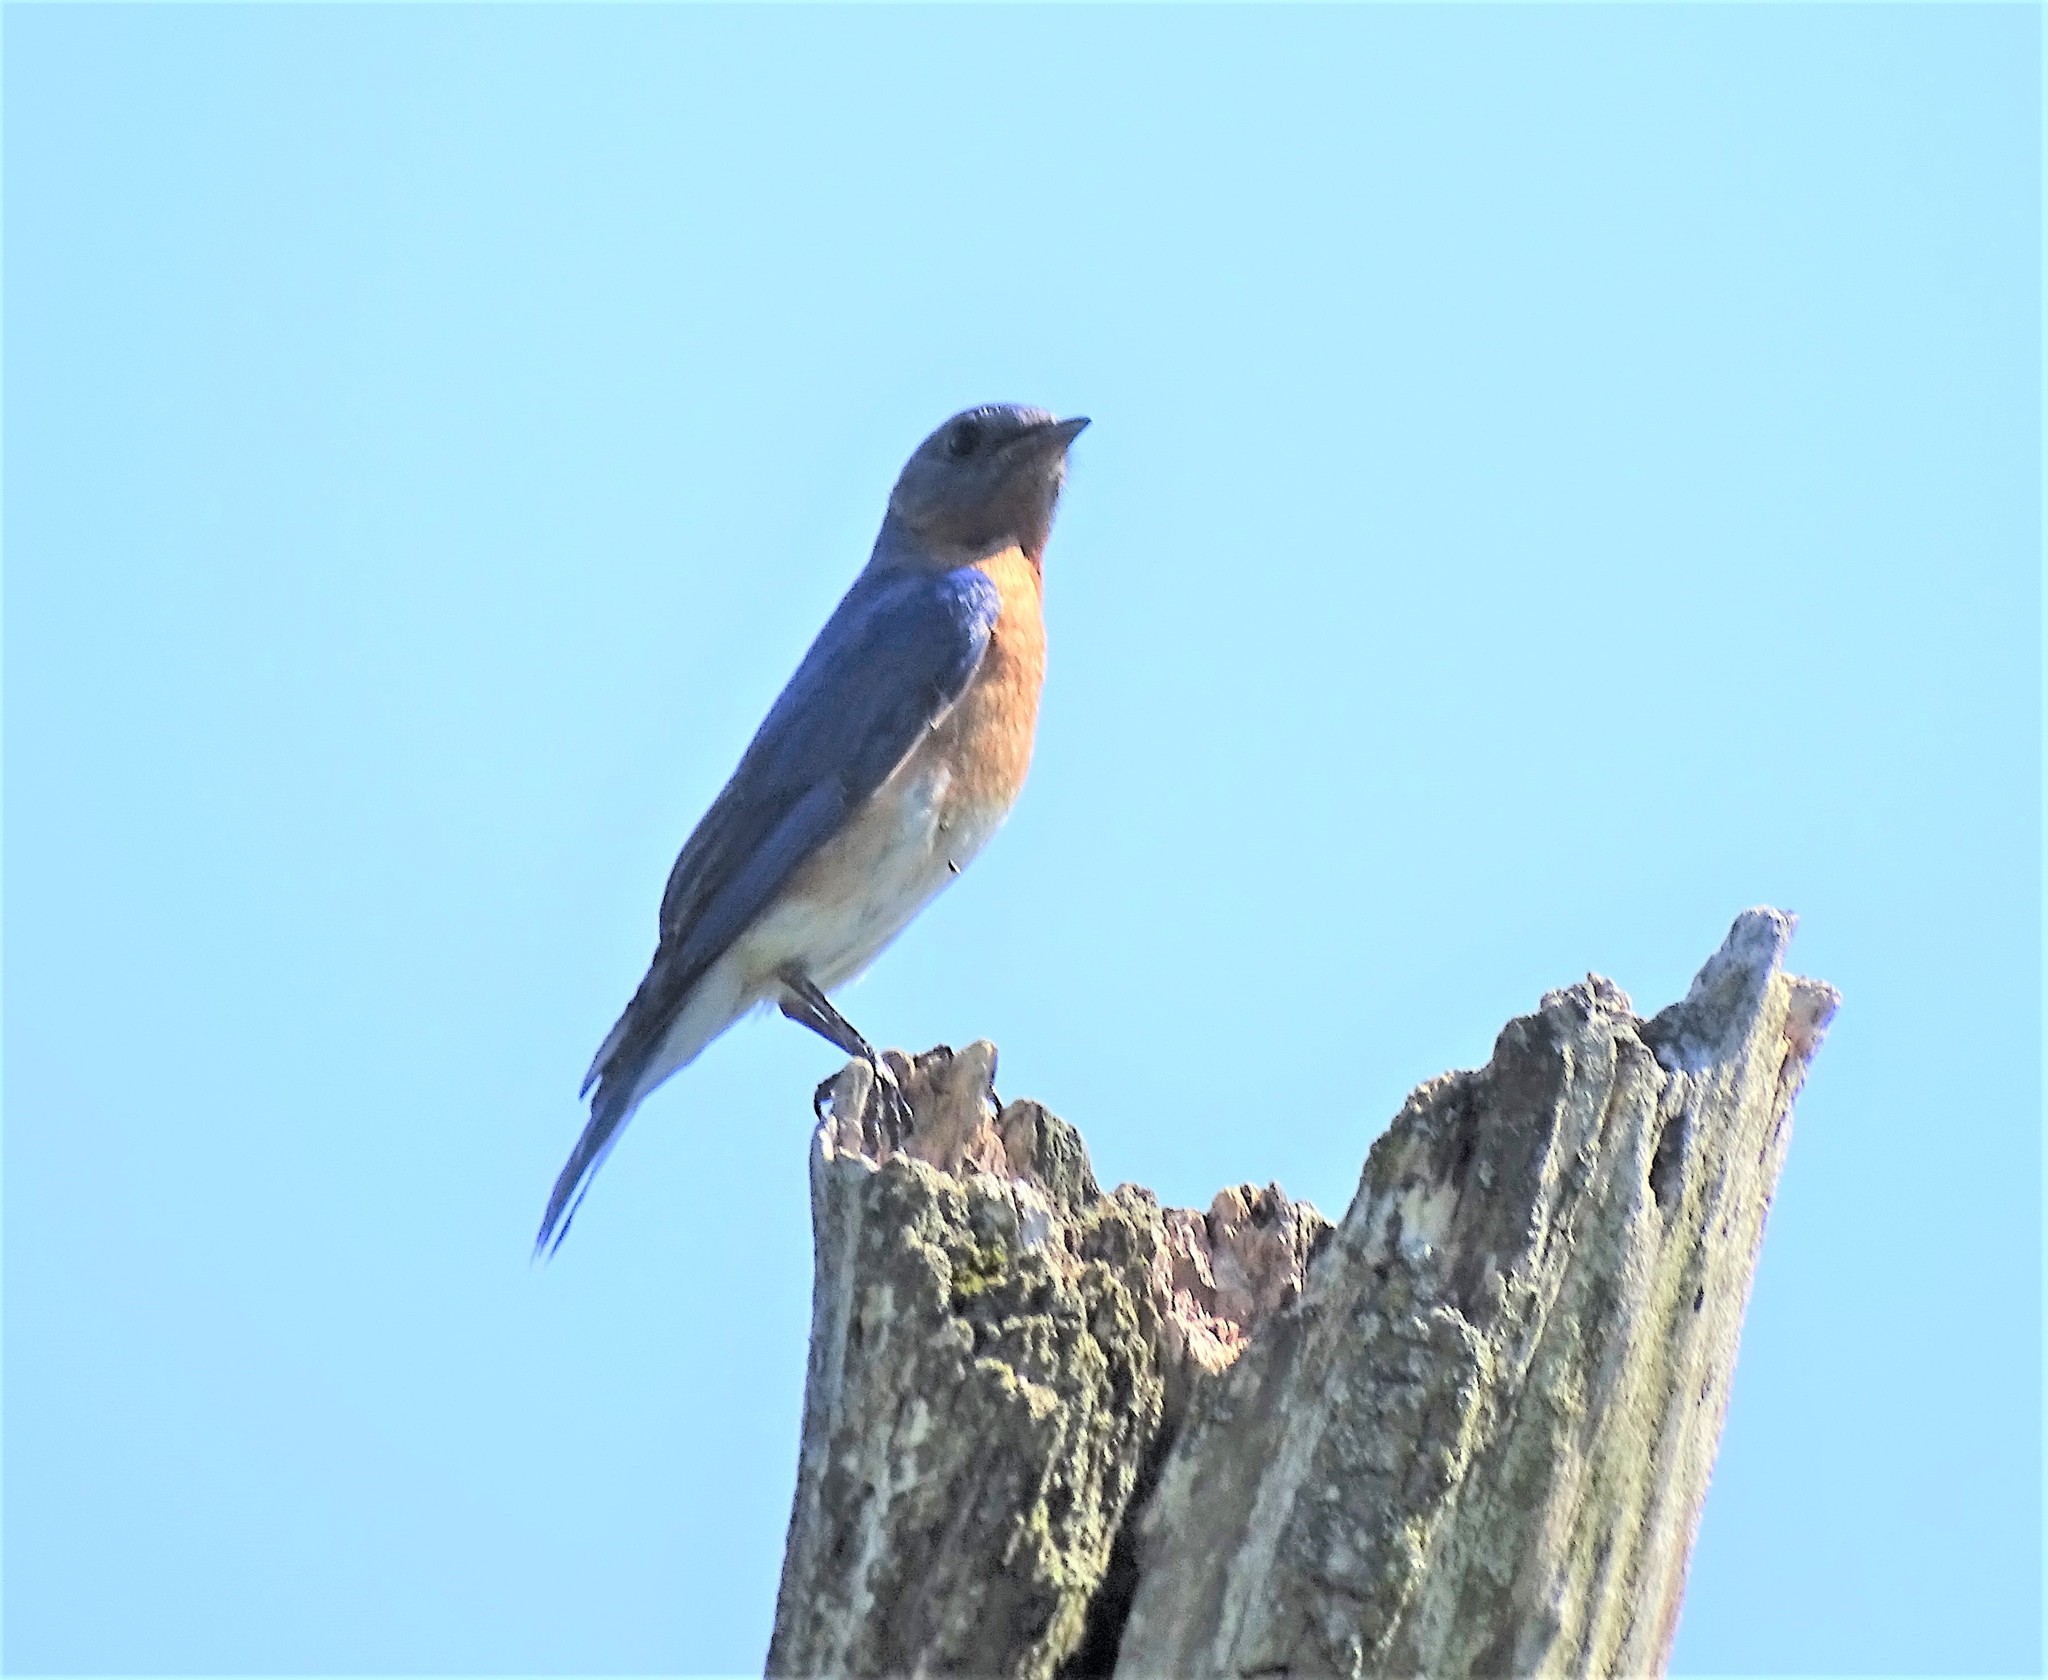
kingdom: Animalia
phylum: Chordata
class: Aves
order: Passeriformes
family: Turdidae
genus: Sialia
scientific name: Sialia sialis
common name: Eastern bluebird
